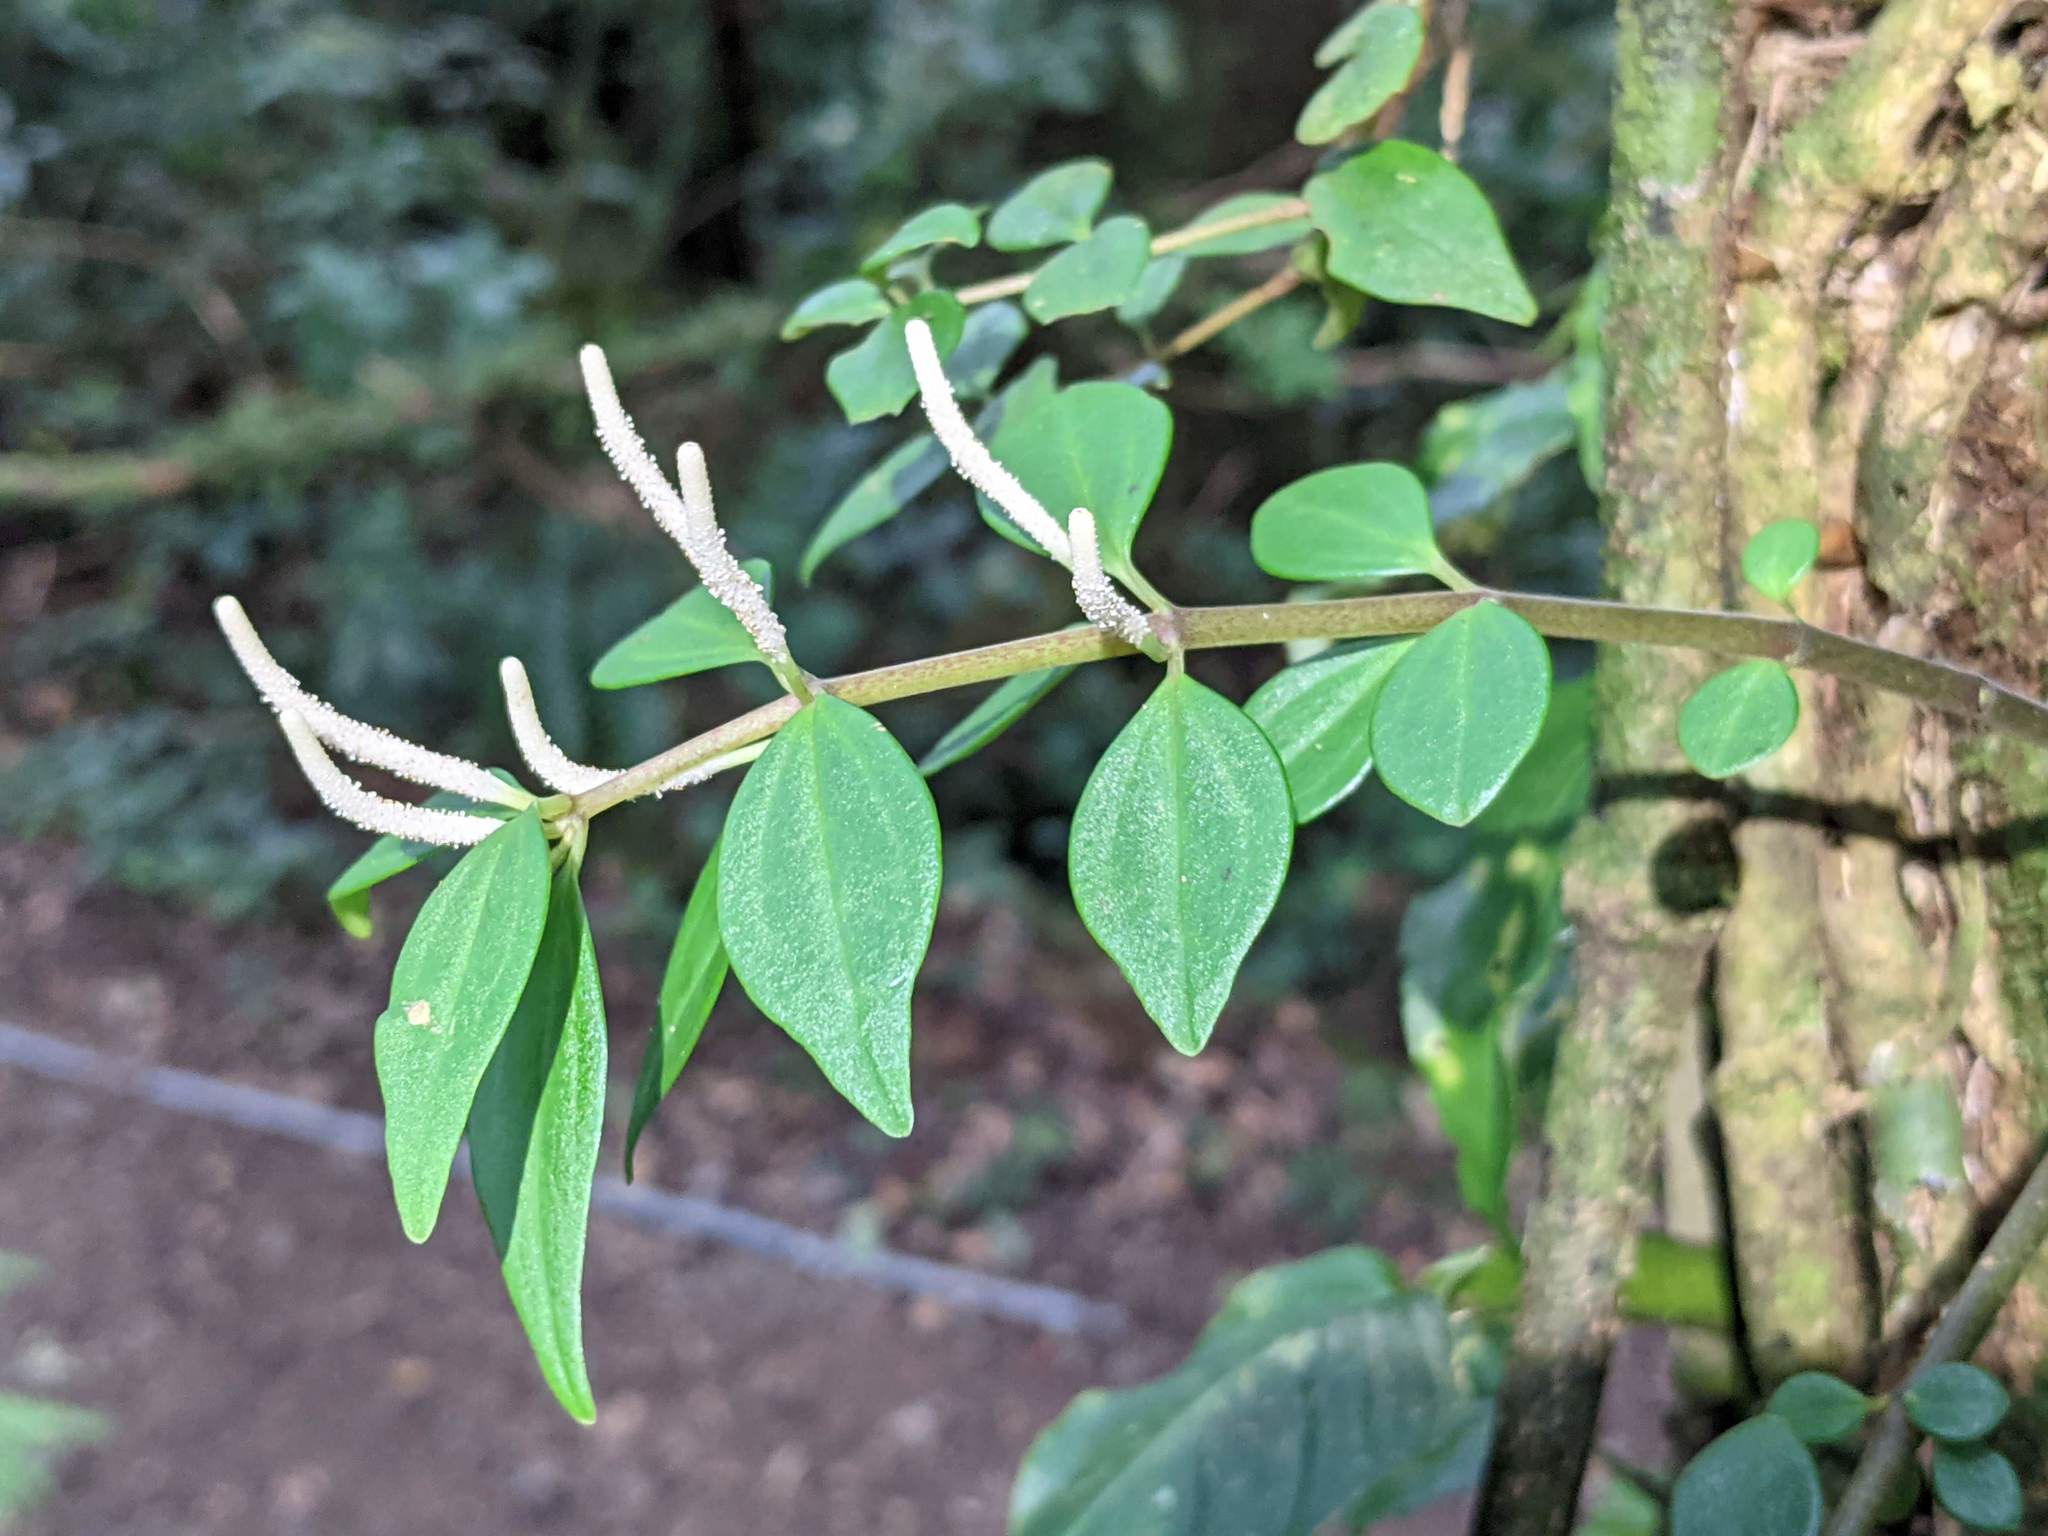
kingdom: Plantae
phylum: Tracheophyta
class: Magnoliopsida
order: Piperales
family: Piperaceae
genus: Peperomia
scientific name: Peperomia palmana
